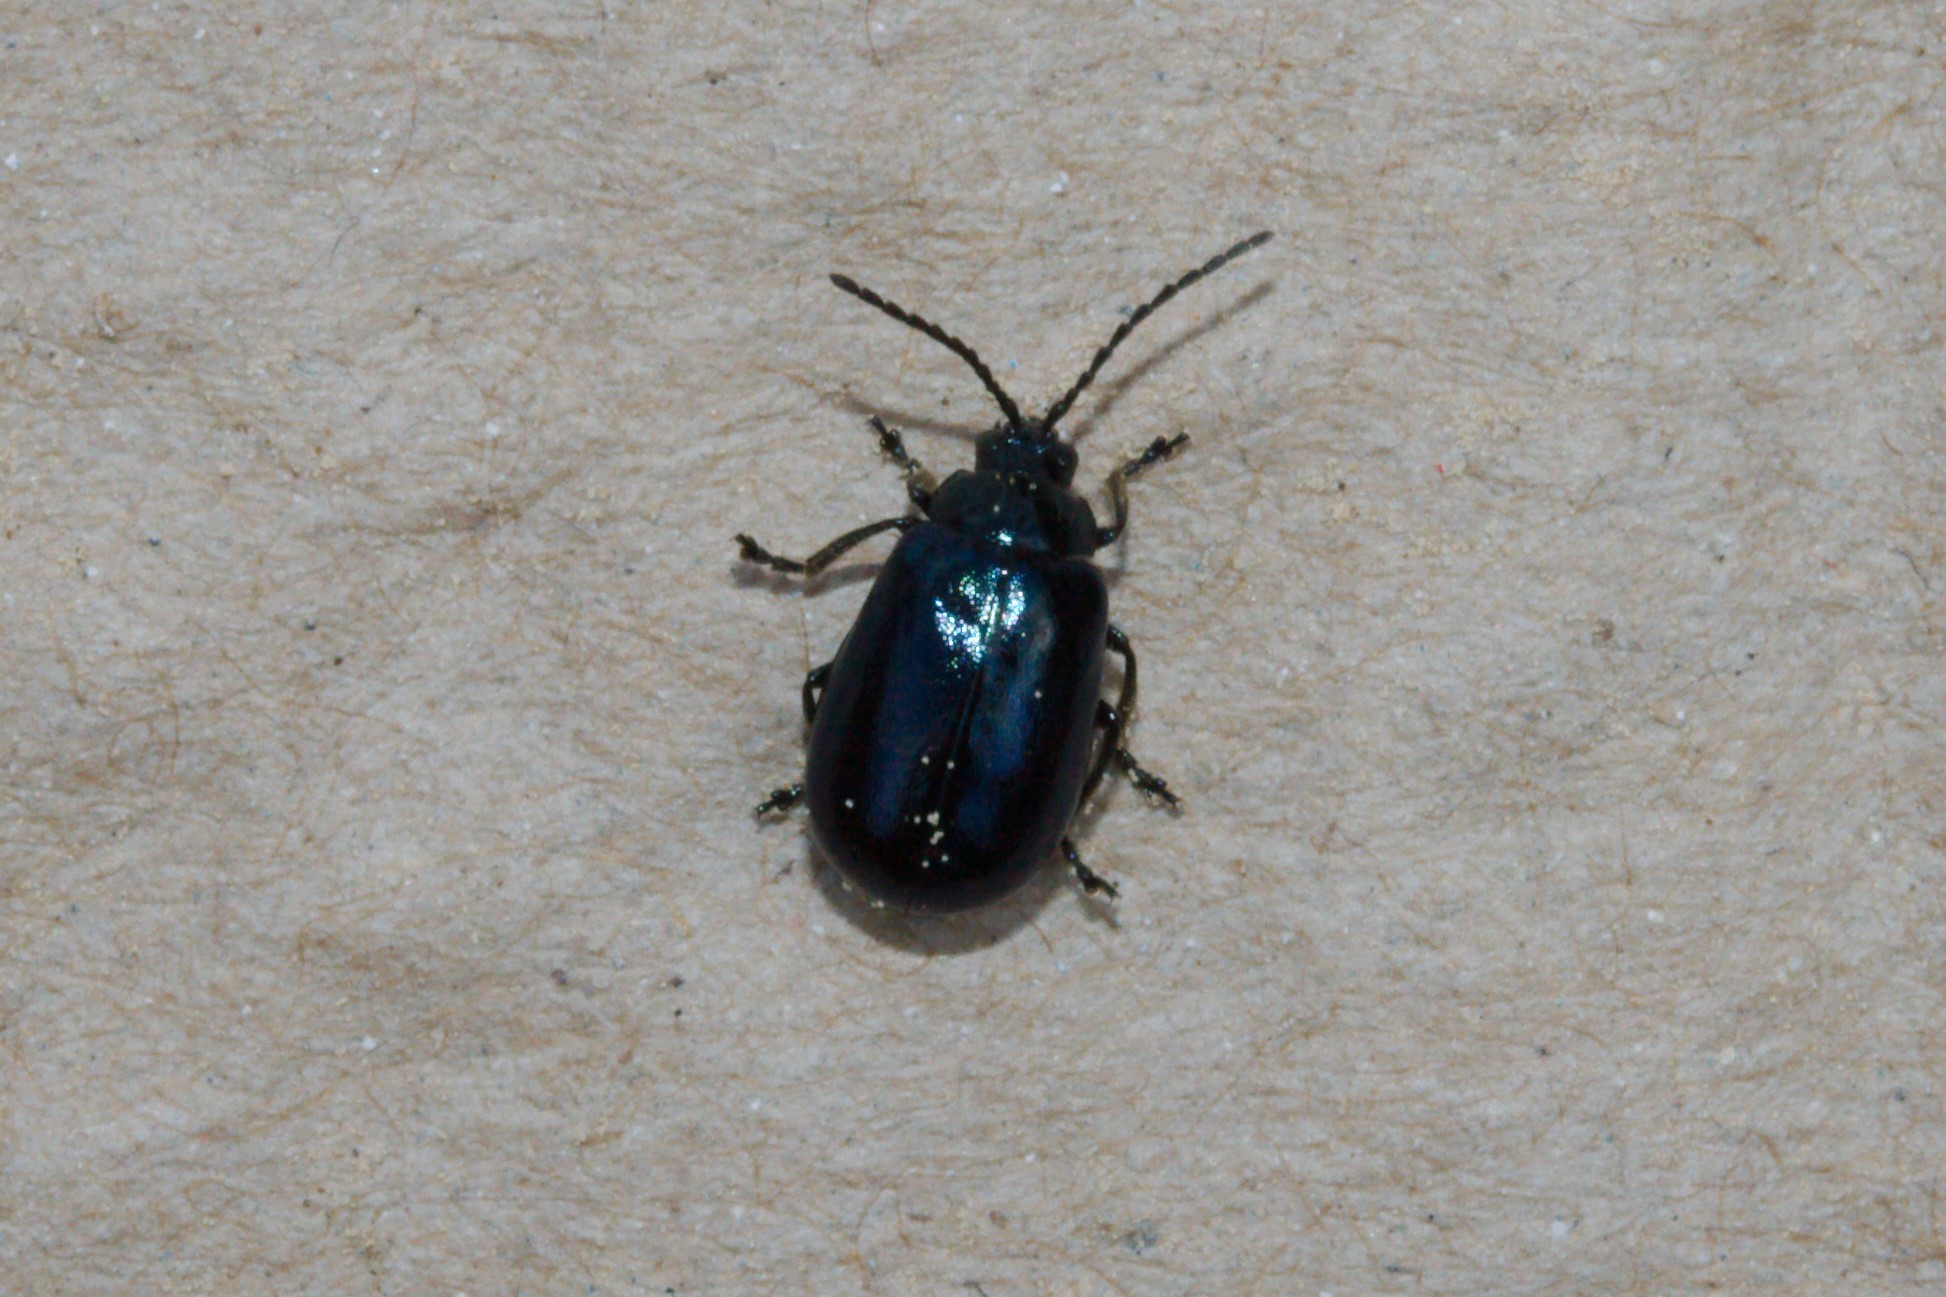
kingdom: Animalia
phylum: Arthropoda
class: Insecta
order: Coleoptera
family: Chrysomelidae
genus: Agelastica
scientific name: Agelastica alni
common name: Alder leaf beetle
